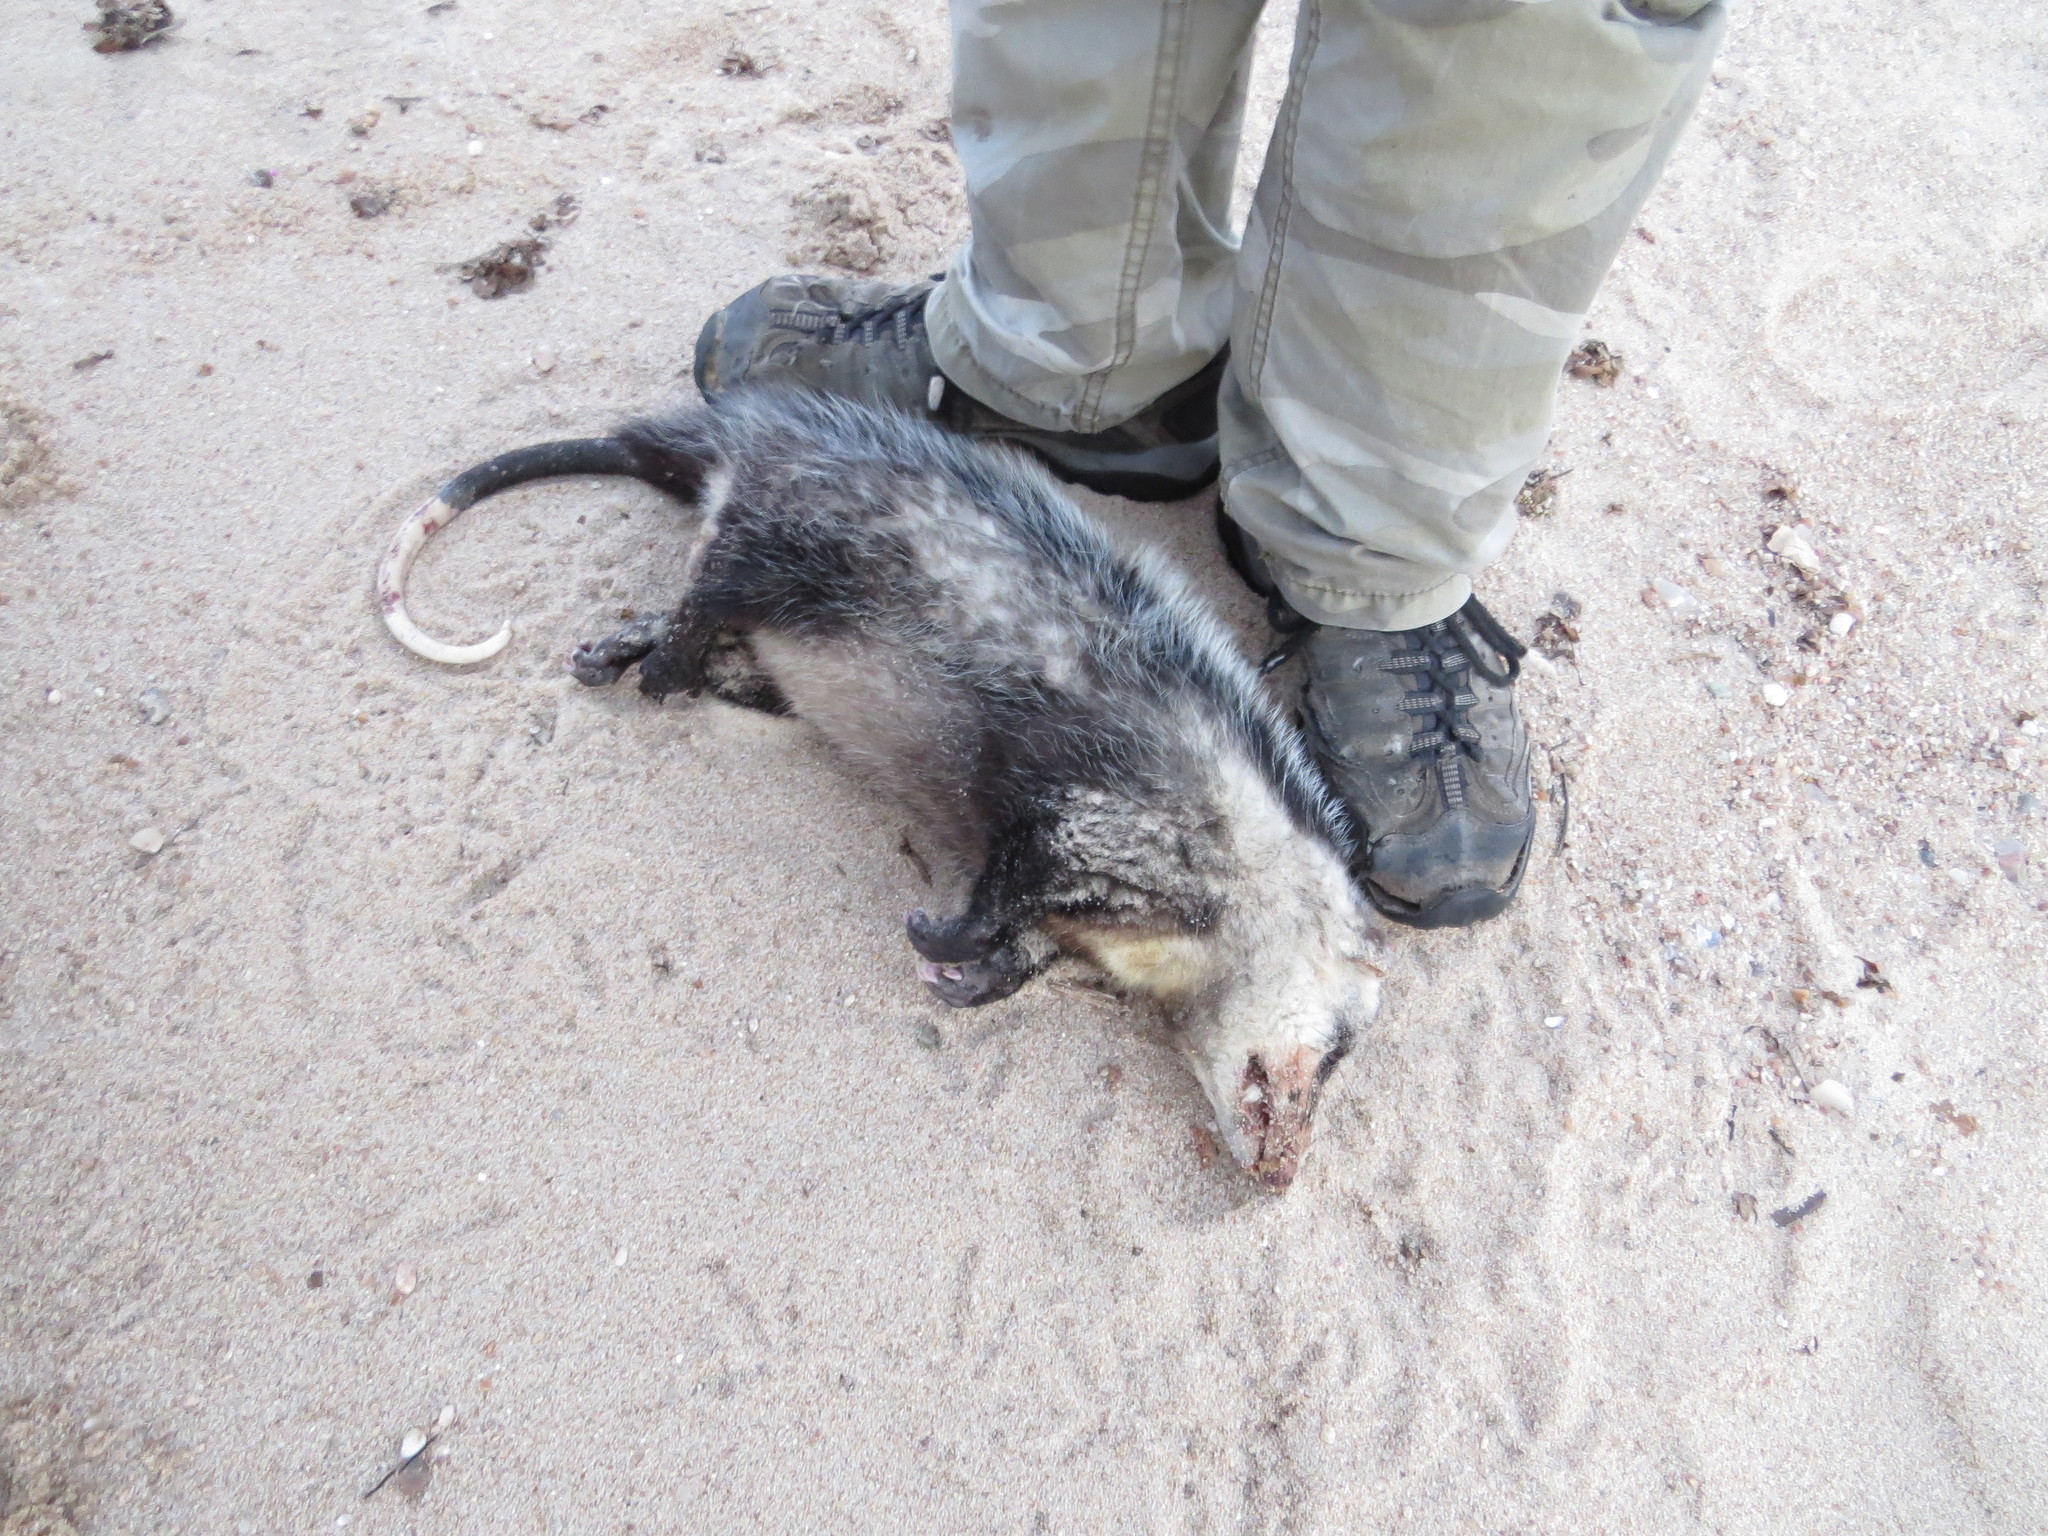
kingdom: Animalia
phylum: Chordata
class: Mammalia
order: Didelphimorphia
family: Didelphidae
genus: Didelphis
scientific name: Didelphis albiventris
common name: White-eared opossum
